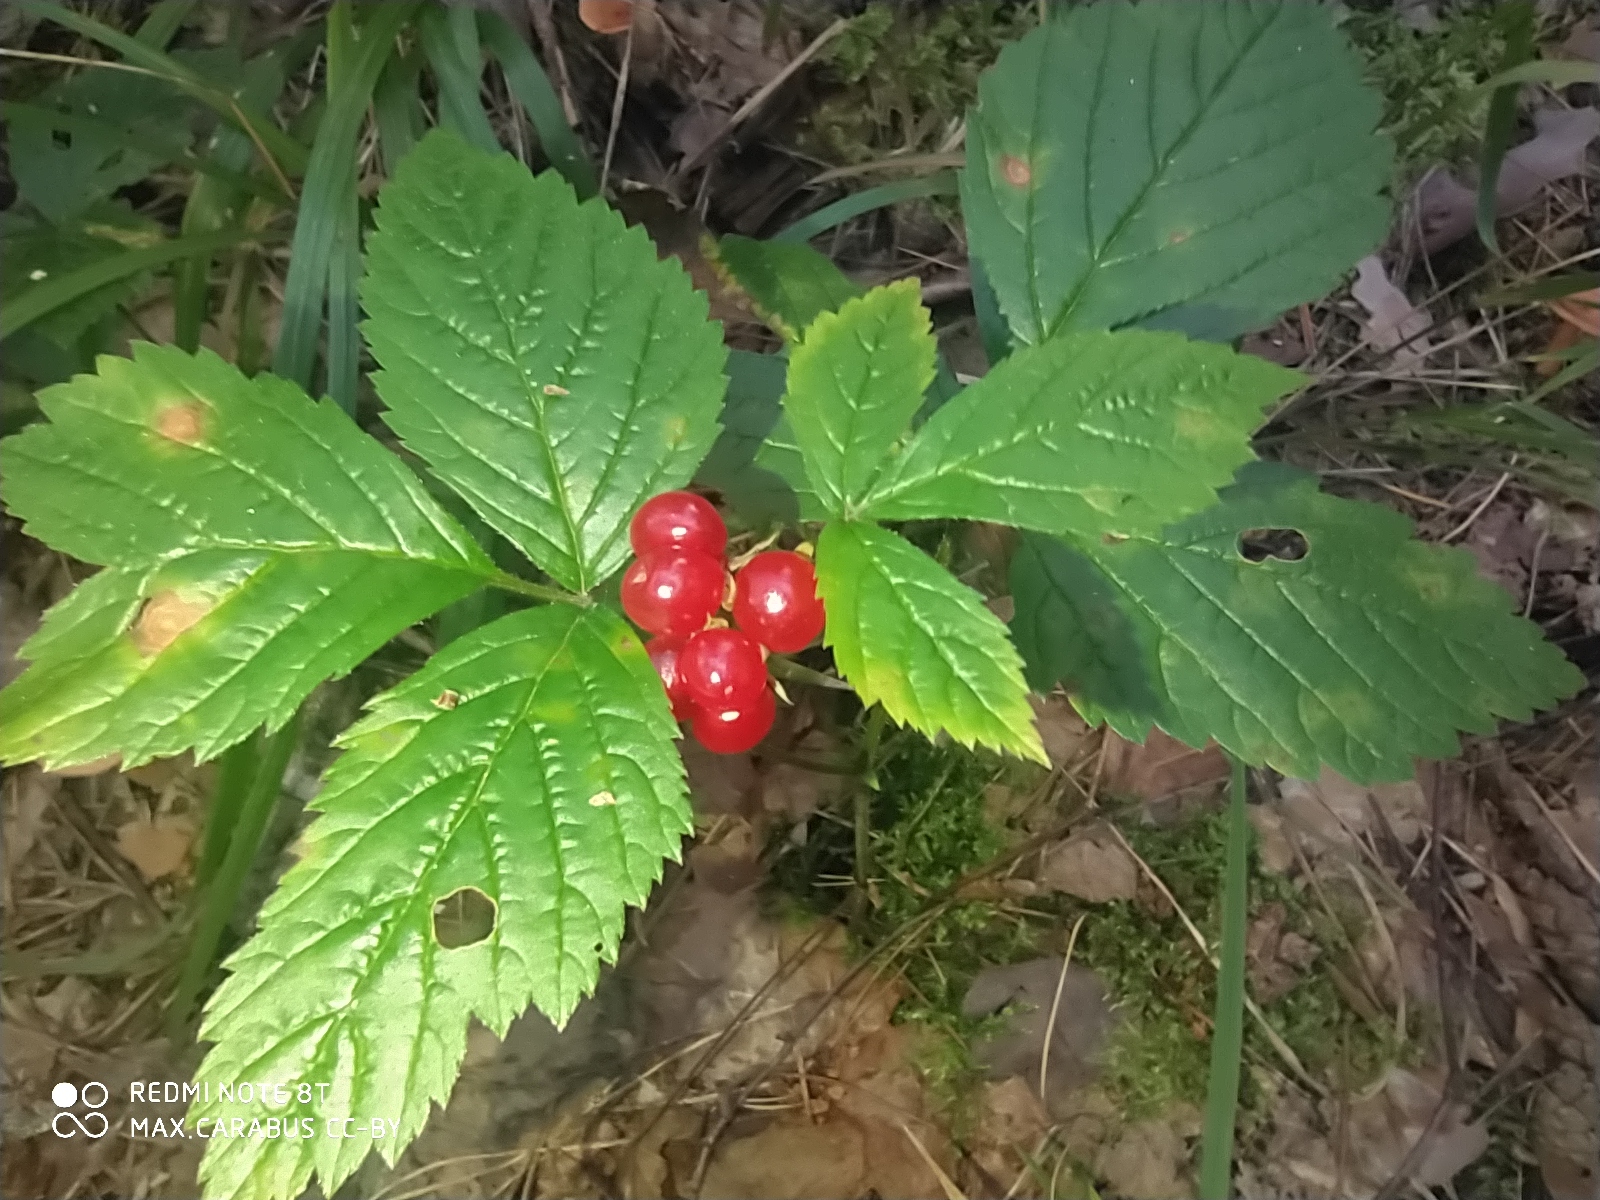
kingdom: Plantae
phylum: Tracheophyta
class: Magnoliopsida
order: Rosales
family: Rosaceae
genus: Rubus
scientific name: Rubus saxatilis
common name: Stone bramble
